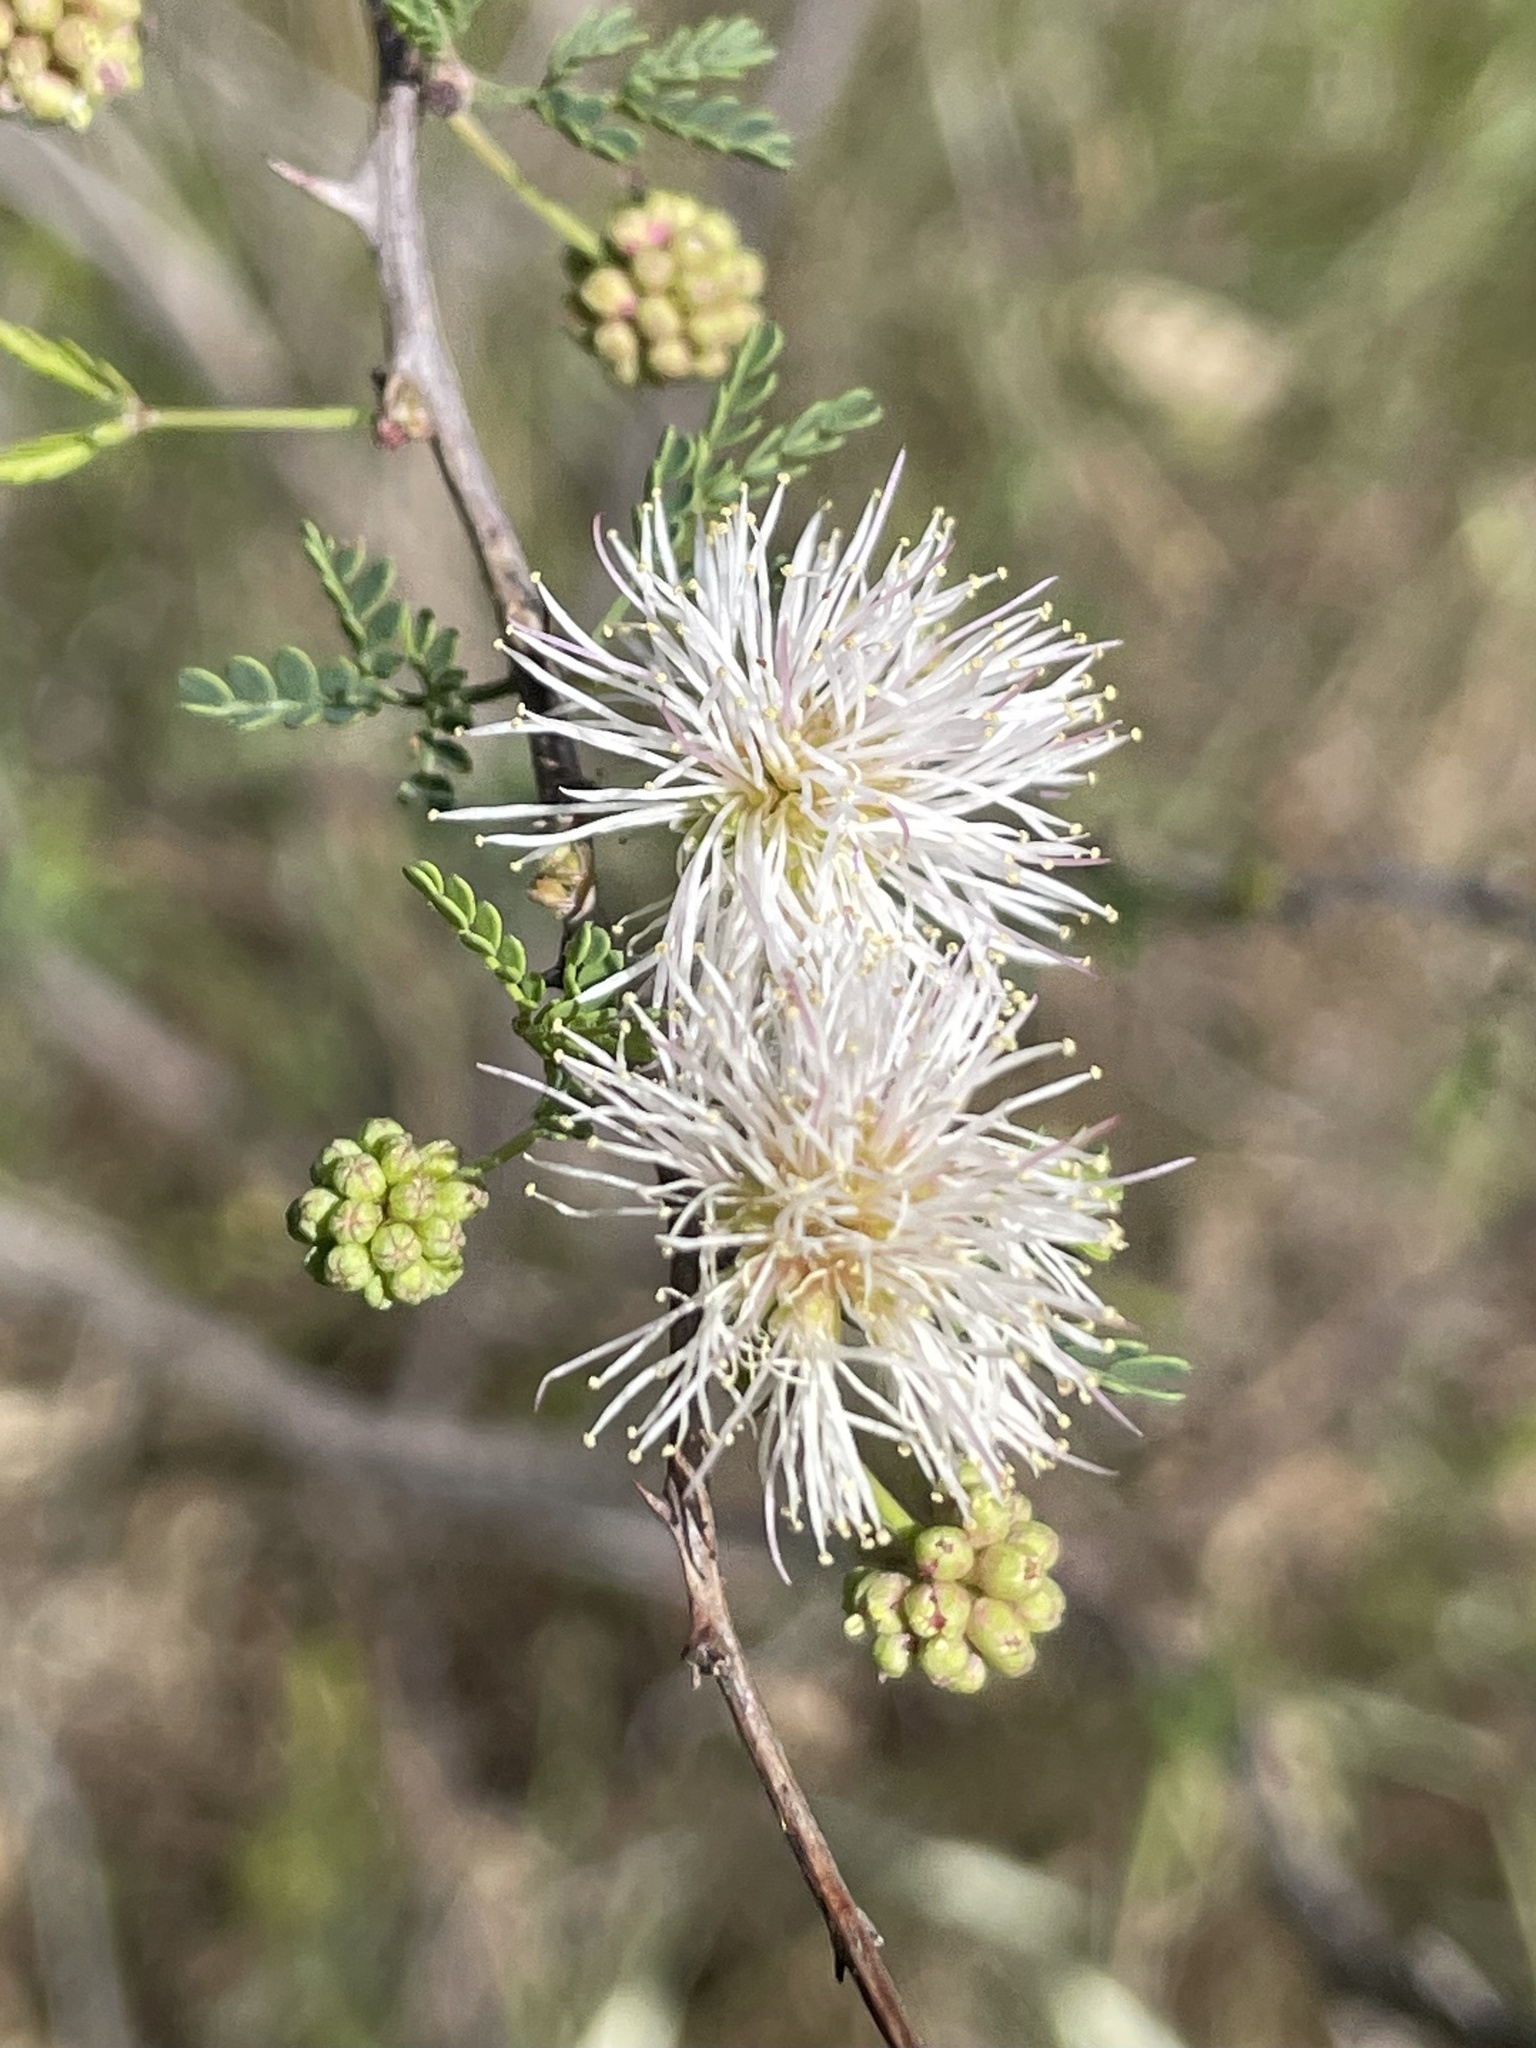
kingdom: Plantae
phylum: Tracheophyta
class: Magnoliopsida
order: Fabales
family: Fabaceae
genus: Mimosa
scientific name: Mimosa texana
